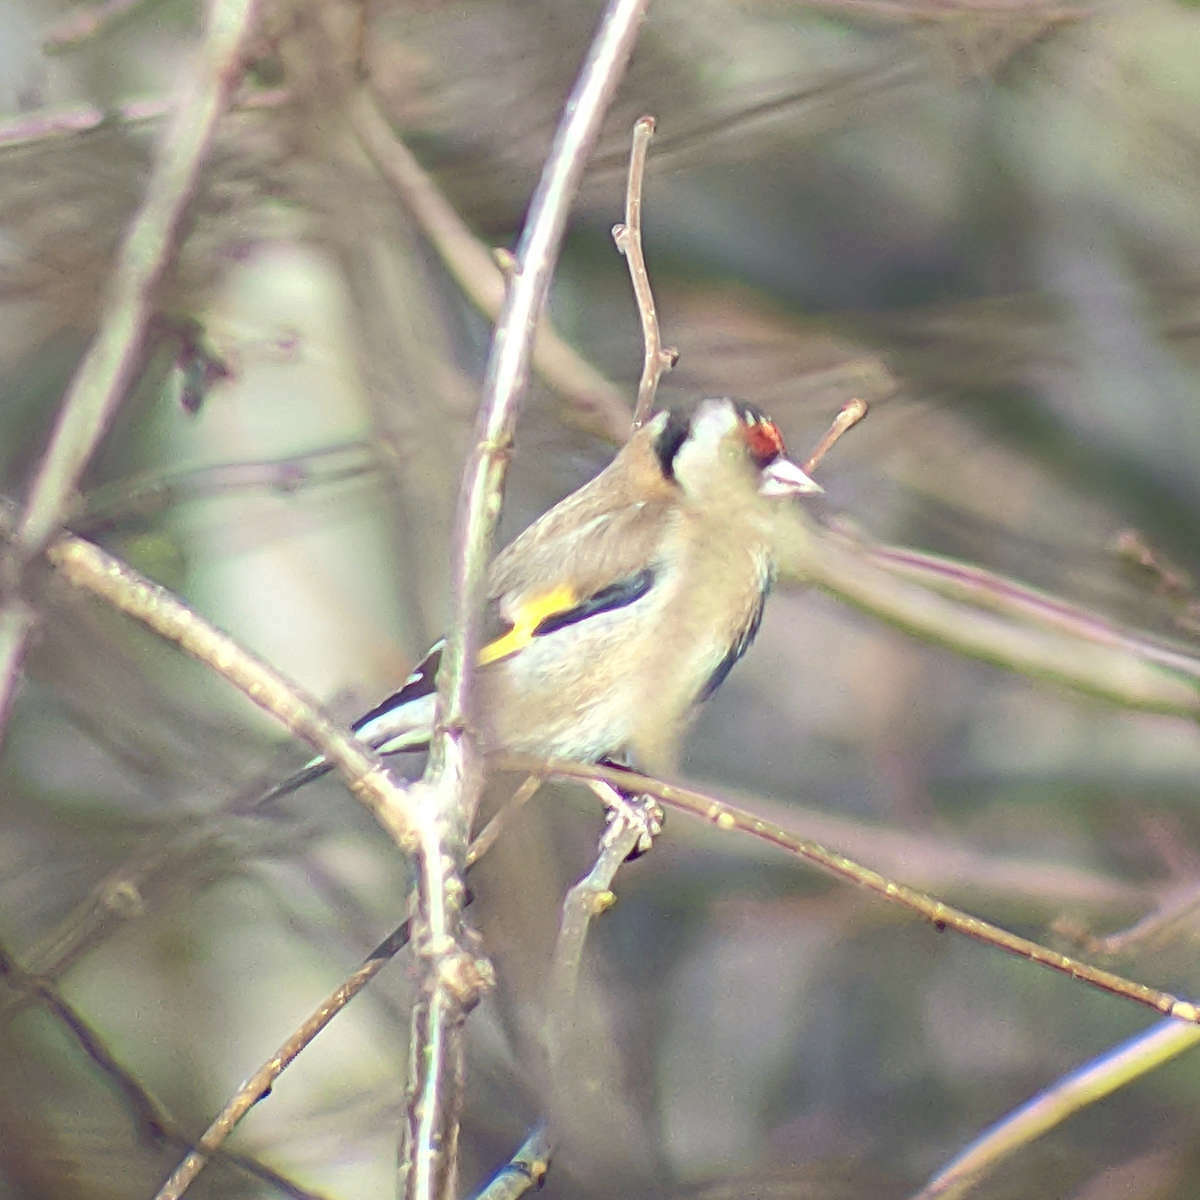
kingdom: Animalia
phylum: Chordata
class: Aves
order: Passeriformes
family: Fringillidae
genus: Carduelis
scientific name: Carduelis carduelis
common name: European goldfinch
